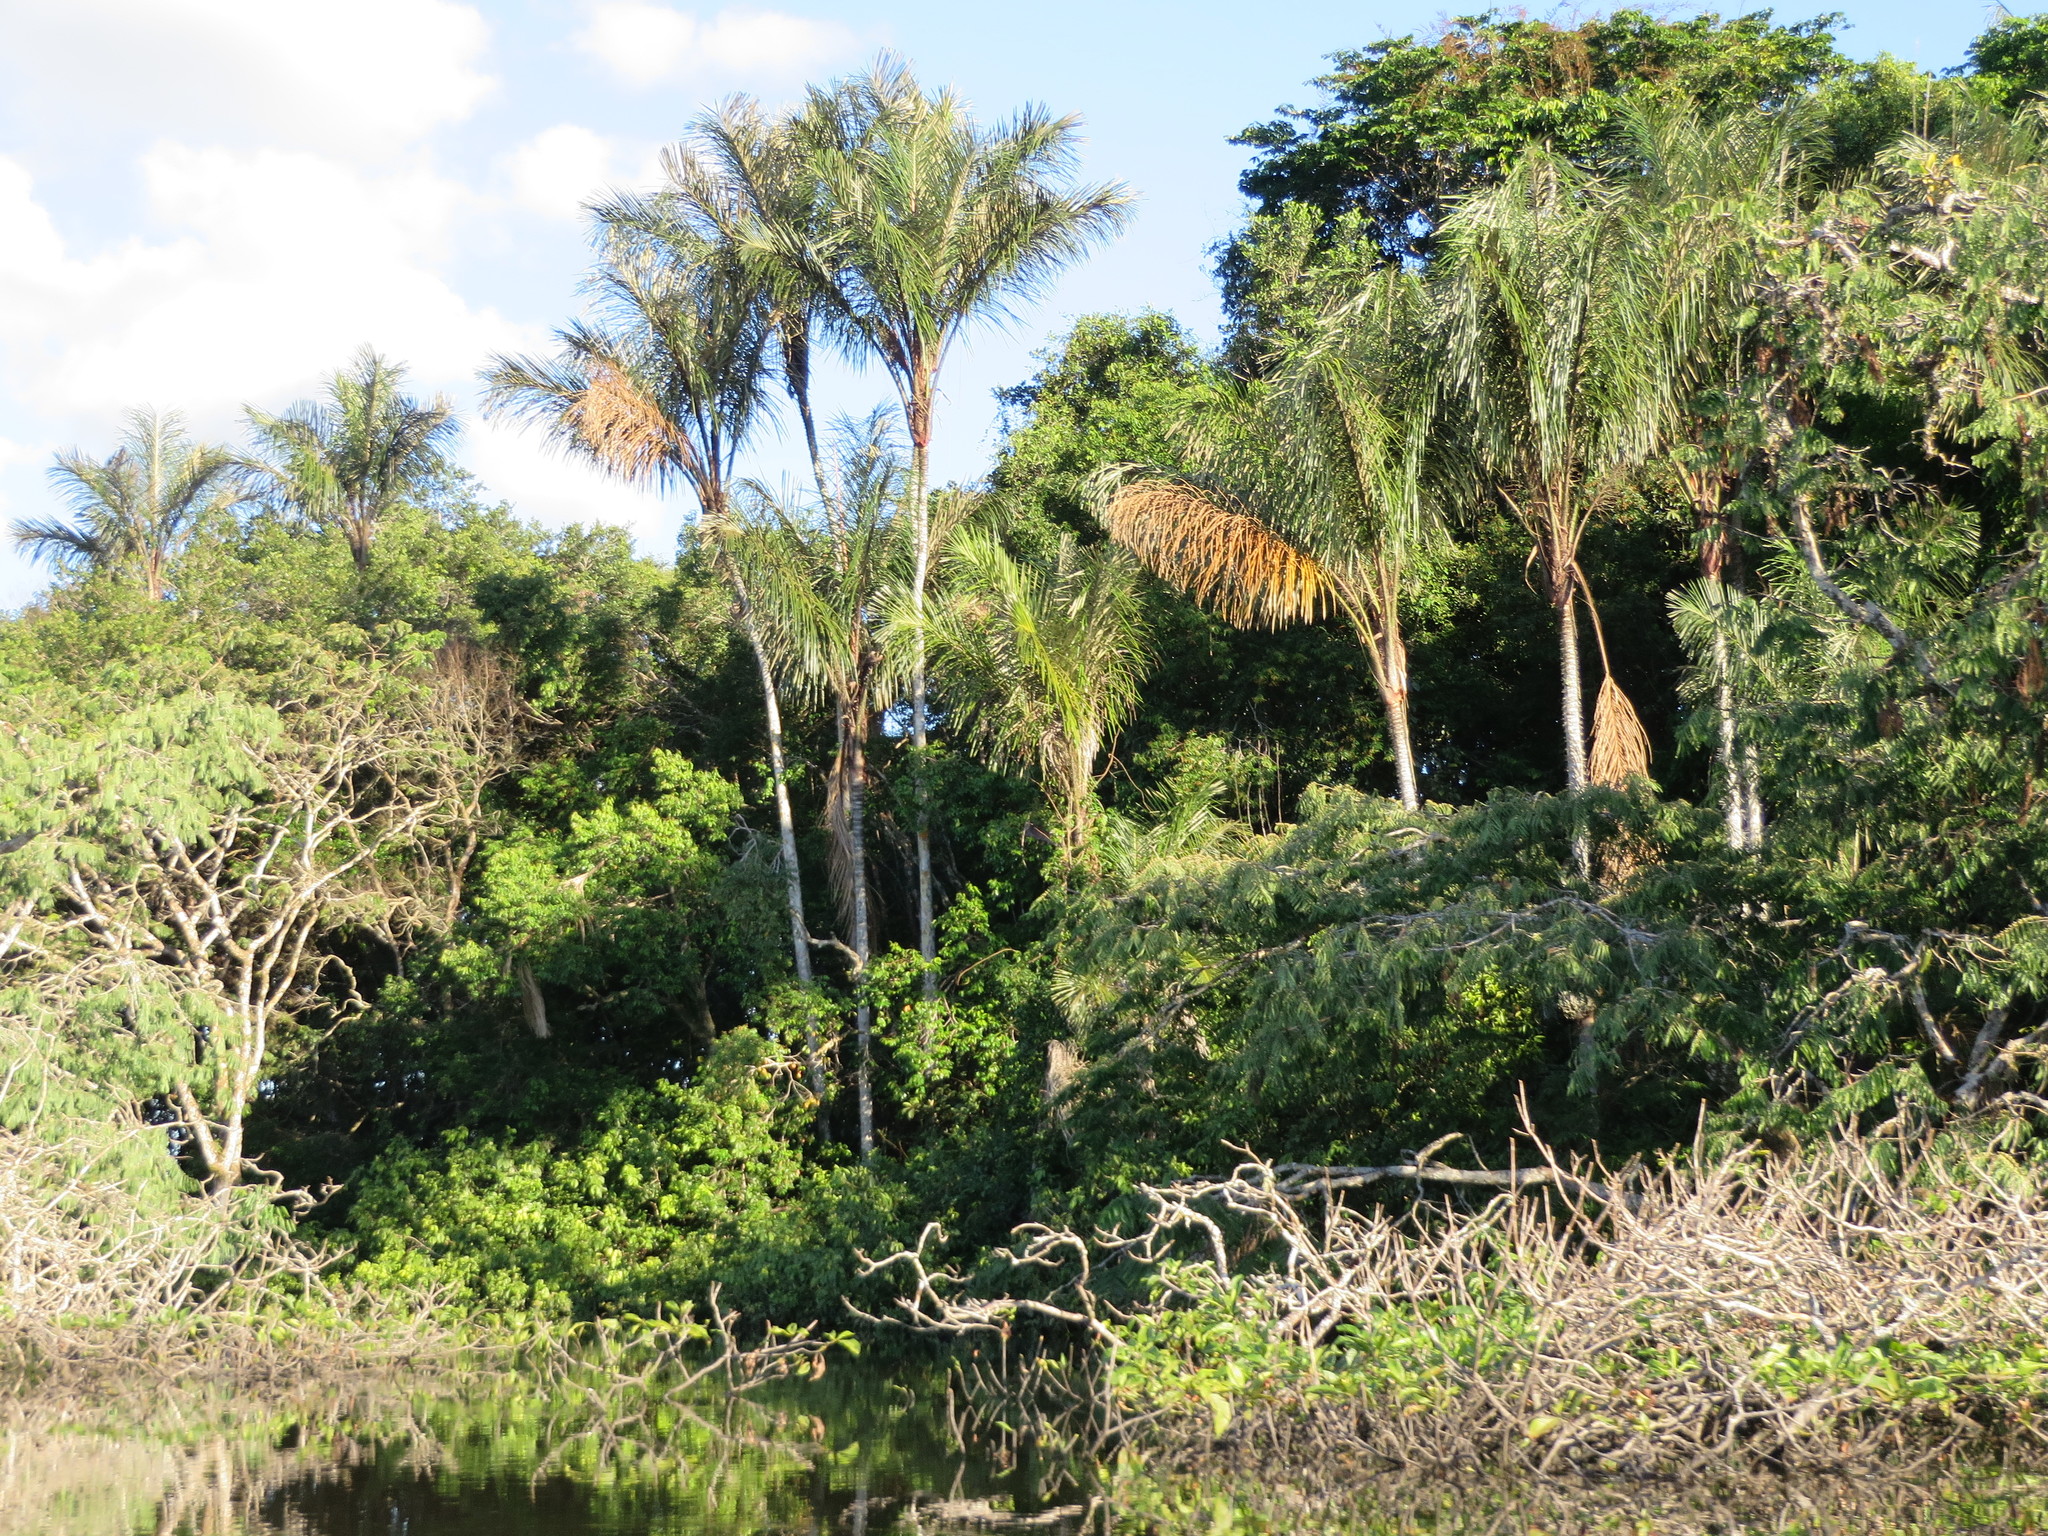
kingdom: Plantae
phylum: Tracheophyta
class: Liliopsida
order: Arecales
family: Arecaceae
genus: Astrocaryum
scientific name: Astrocaryum jauari
